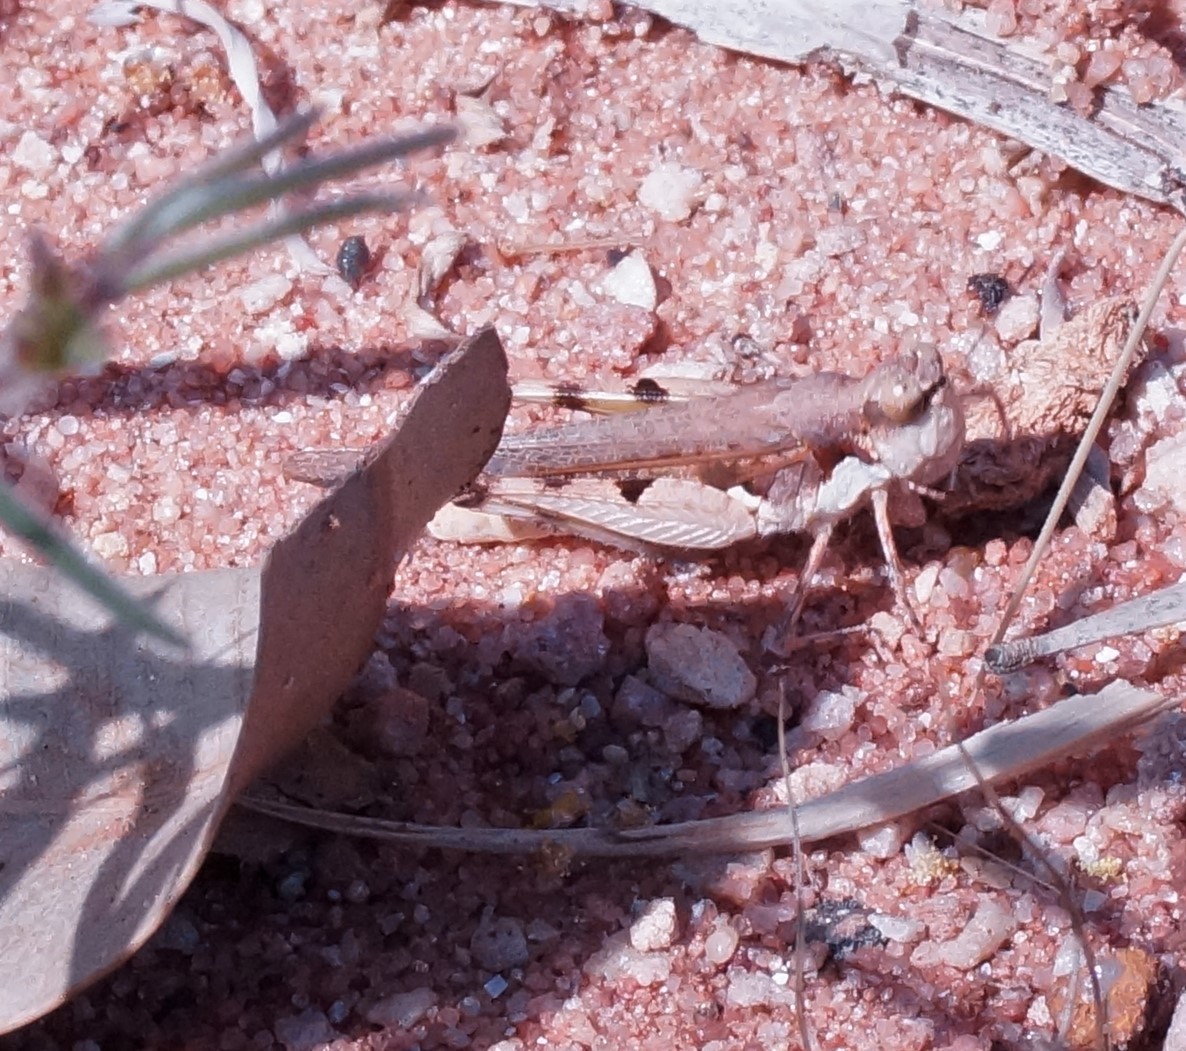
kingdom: Animalia
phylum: Arthropoda
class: Insecta
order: Orthoptera
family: Acrididae
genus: Pycnostictus
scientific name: Pycnostictus seriatus
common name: Common bandwing
